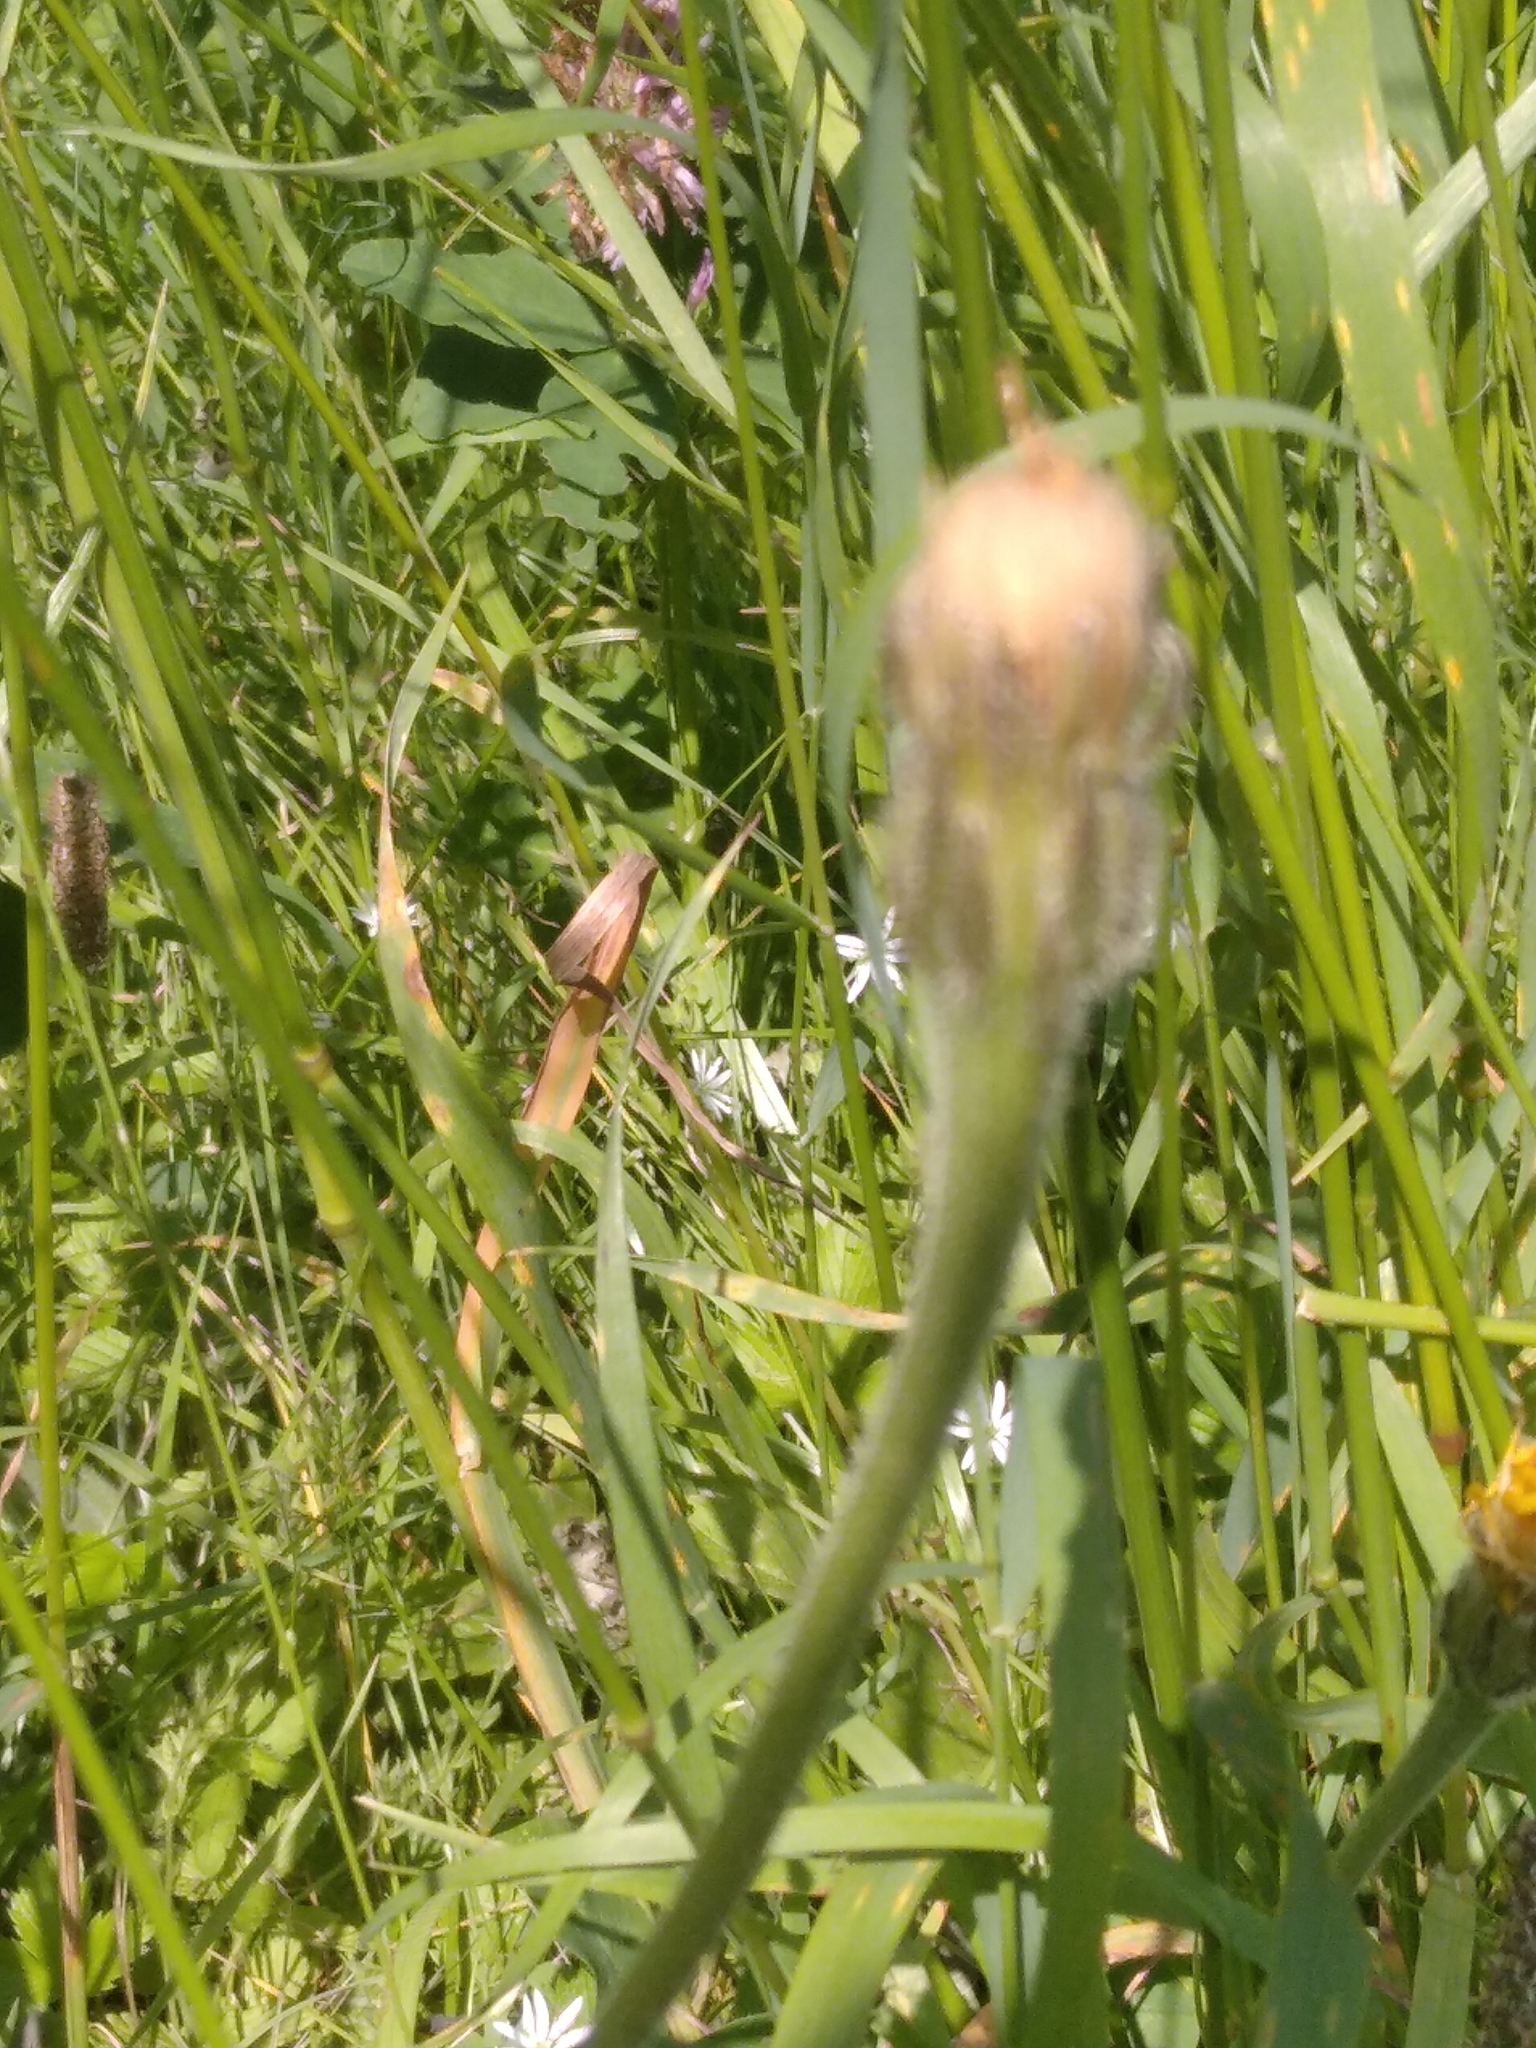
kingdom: Plantae
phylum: Tracheophyta
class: Magnoliopsida
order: Asterales
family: Asteraceae
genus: Leontodon
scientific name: Leontodon hispidus
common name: Rough hawkbit
